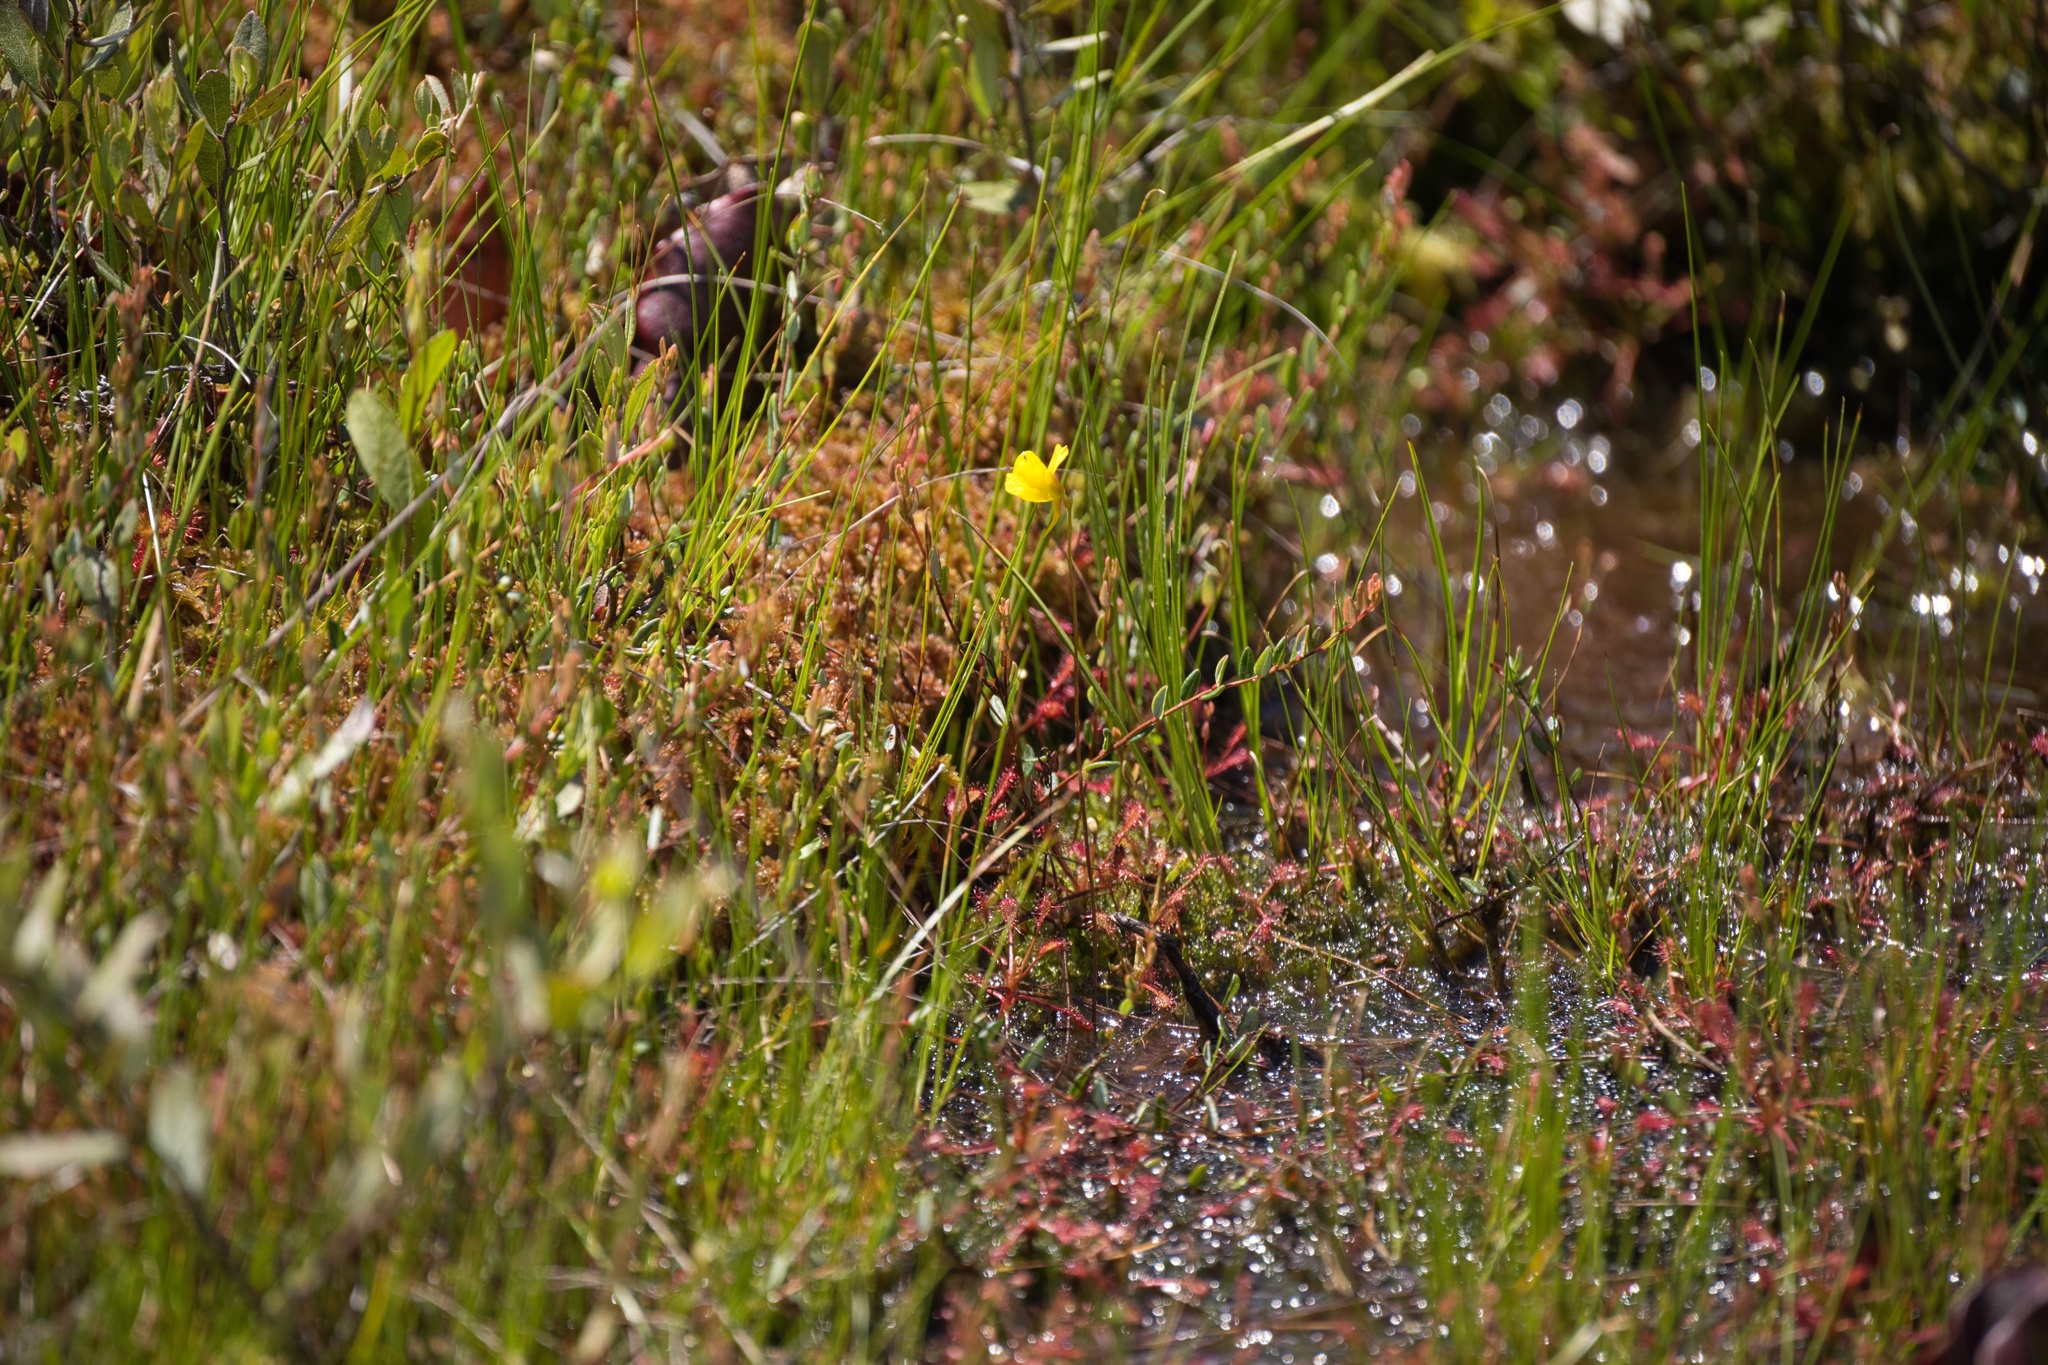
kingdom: Plantae
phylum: Tracheophyta
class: Magnoliopsida
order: Lamiales
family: Lentibulariaceae
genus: Utricularia
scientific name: Utricularia cornuta
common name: Horned bladderwort
